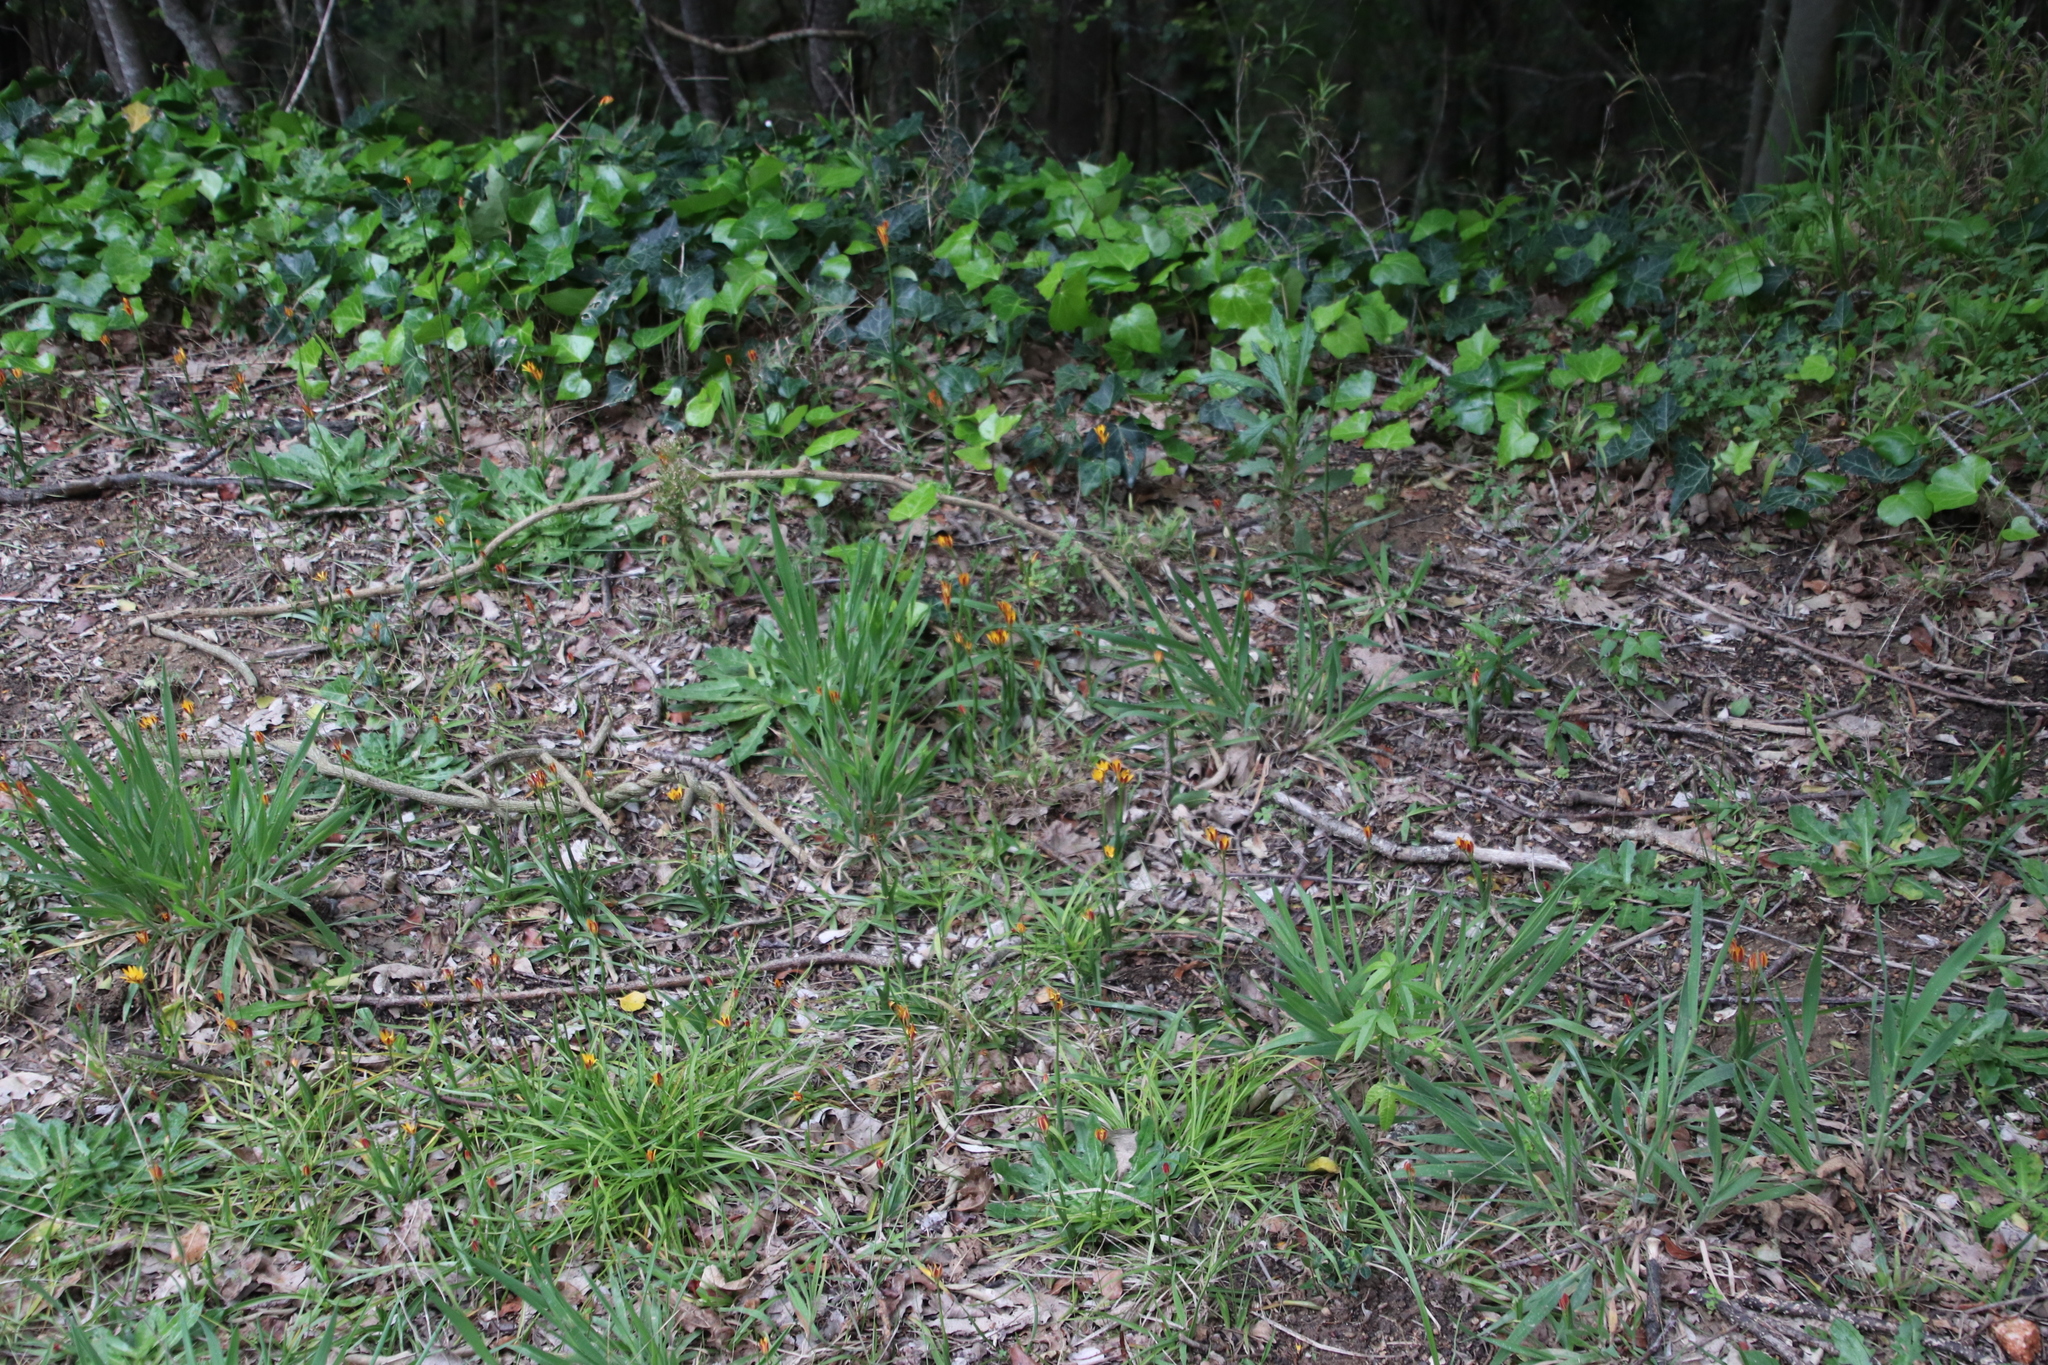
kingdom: Plantae
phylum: Tracheophyta
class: Liliopsida
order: Liliales
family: Colchicaceae
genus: Baeometra
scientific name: Baeometra uniflora
